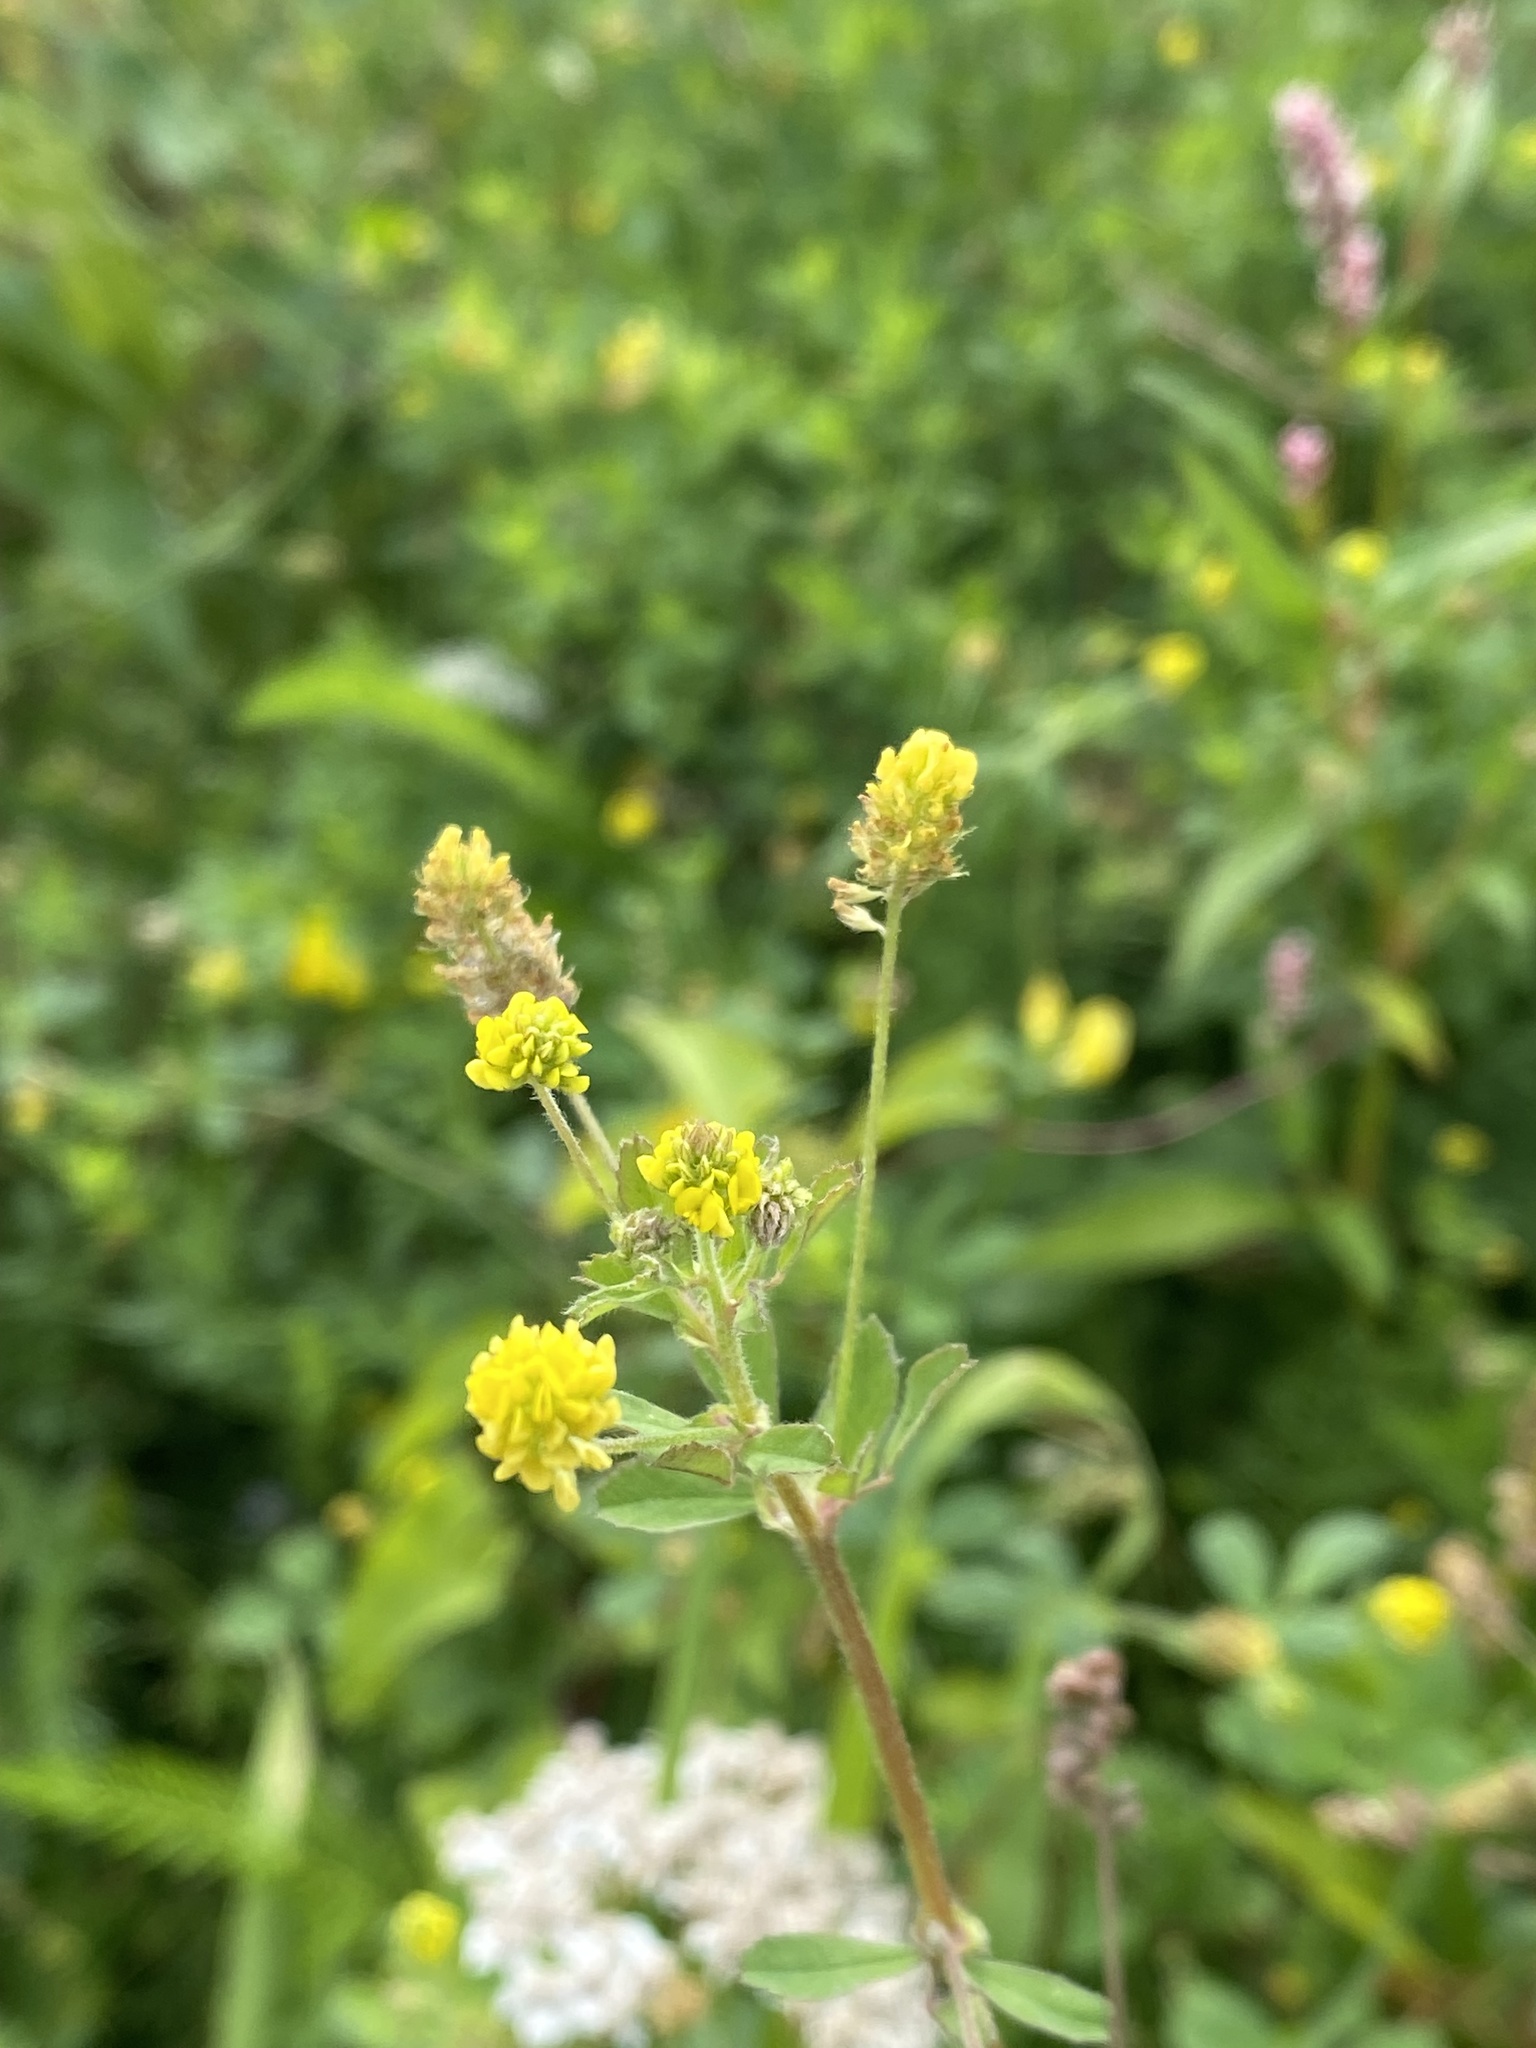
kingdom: Plantae
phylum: Tracheophyta
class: Magnoliopsida
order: Fabales
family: Fabaceae
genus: Medicago
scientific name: Medicago lupulina
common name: Black medick
